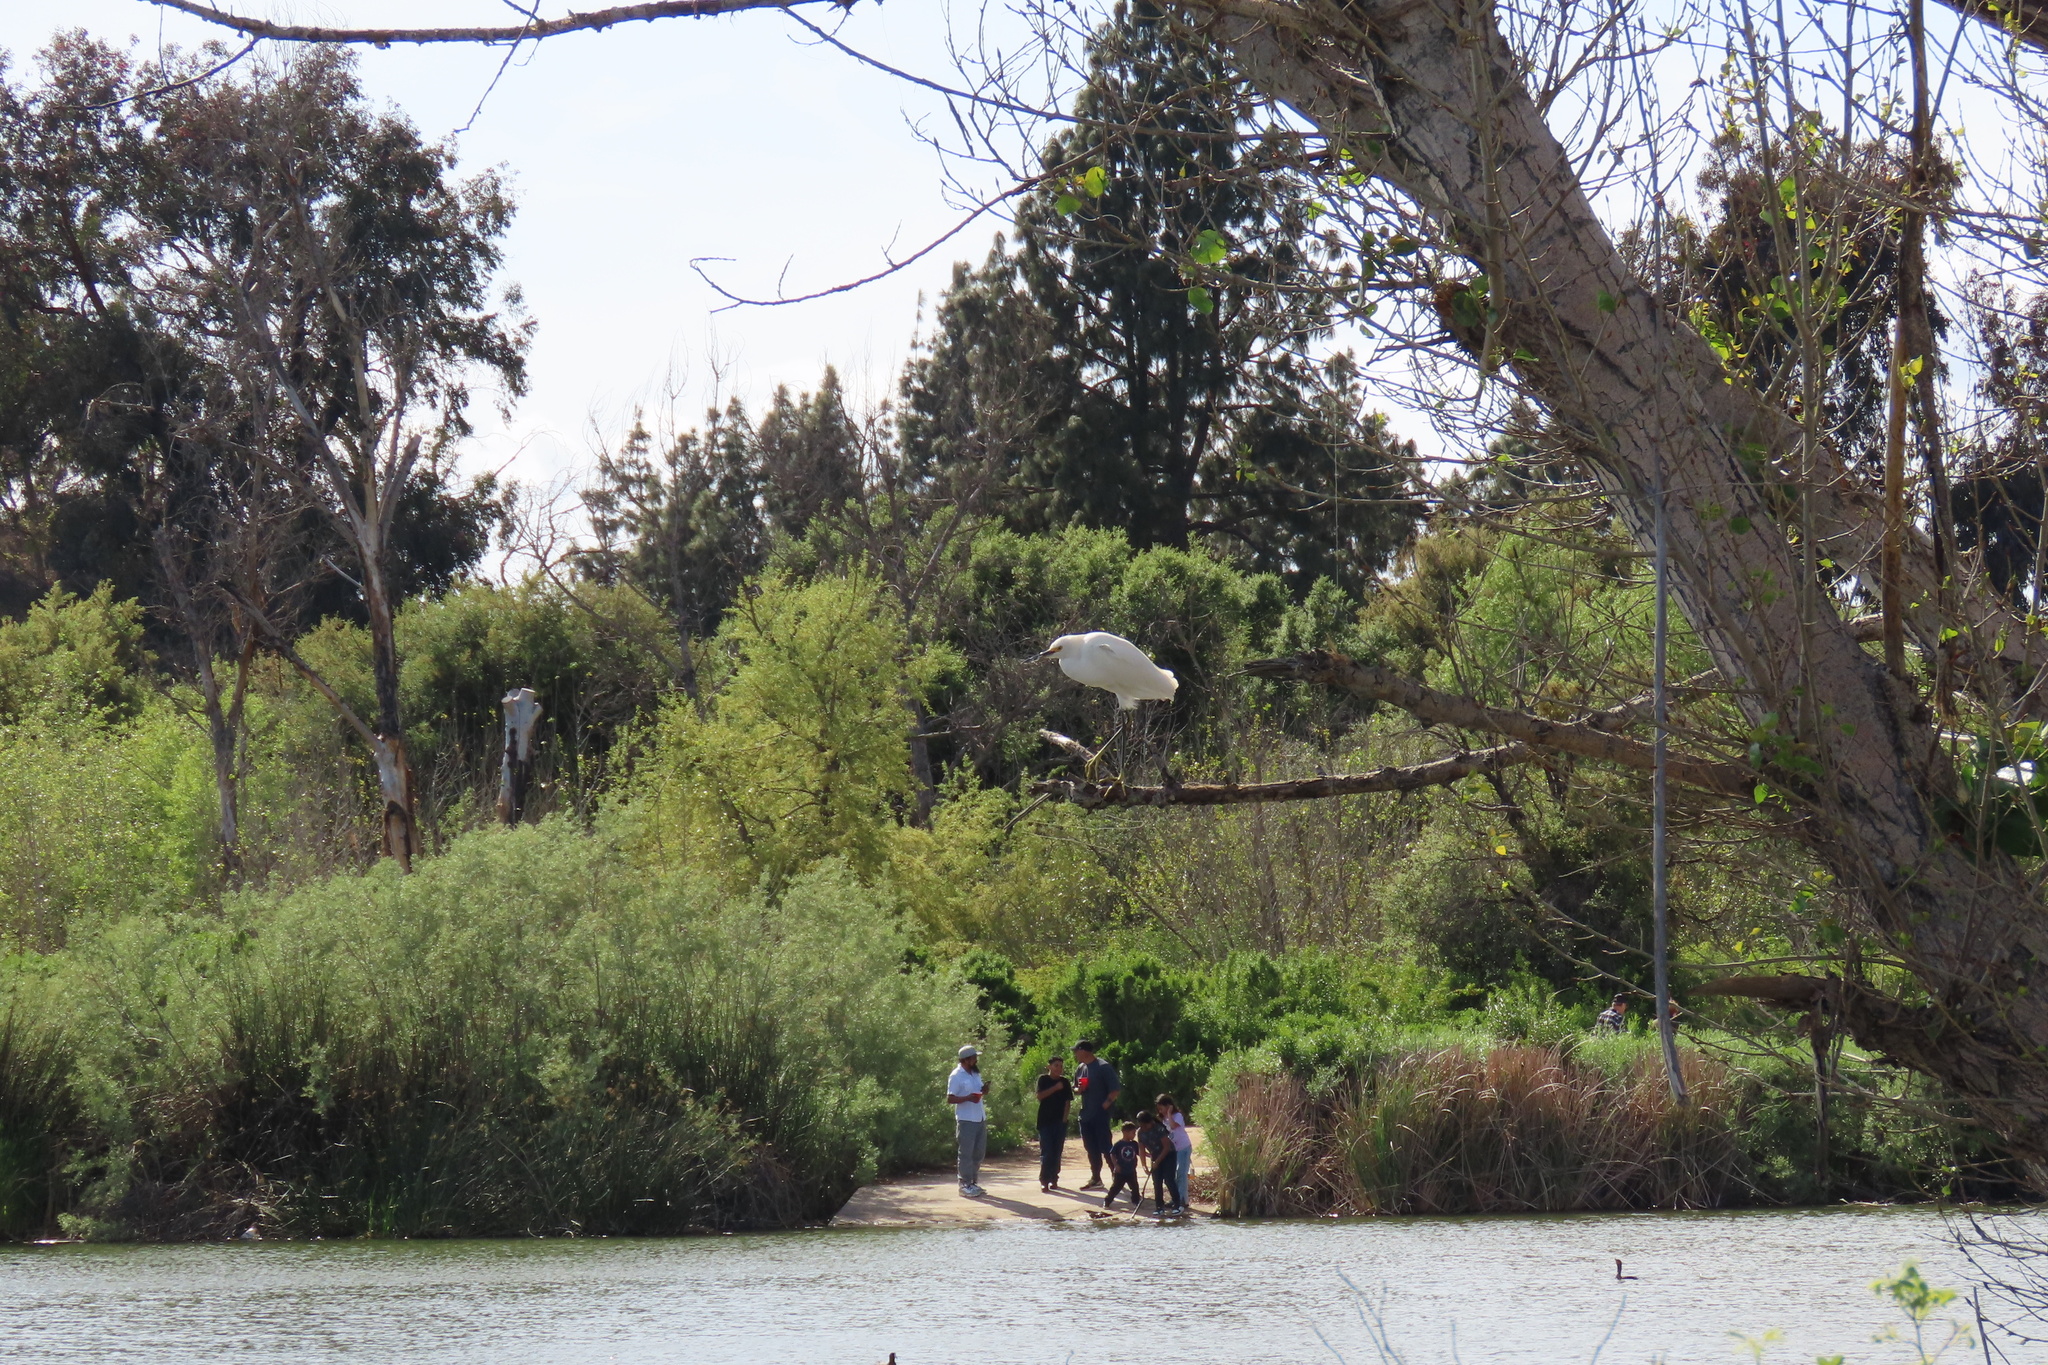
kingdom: Animalia
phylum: Chordata
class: Aves
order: Pelecaniformes
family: Ardeidae
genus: Egretta
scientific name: Egretta thula
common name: Snowy egret
